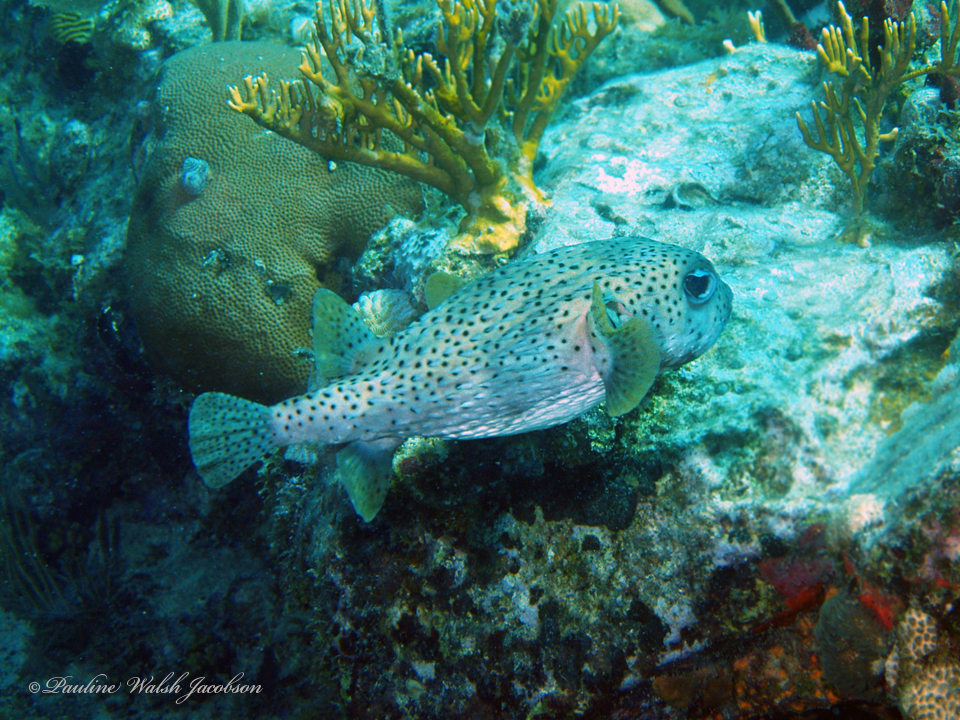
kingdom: Animalia
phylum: Chordata
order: Tetraodontiformes
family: Diodontidae
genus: Diodon
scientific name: Diodon hystrix
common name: Giant porcupinefish
